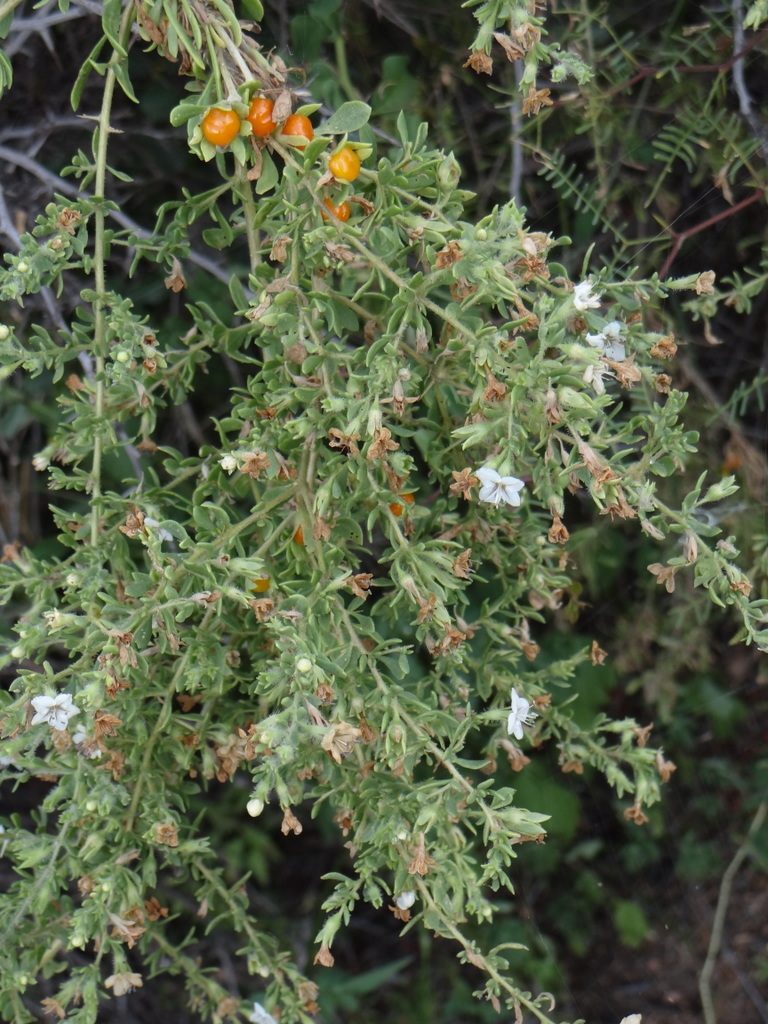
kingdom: Plantae
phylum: Tracheophyta
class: Magnoliopsida
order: Solanales
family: Solanaceae
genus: Lycium
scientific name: Lycium chilense
